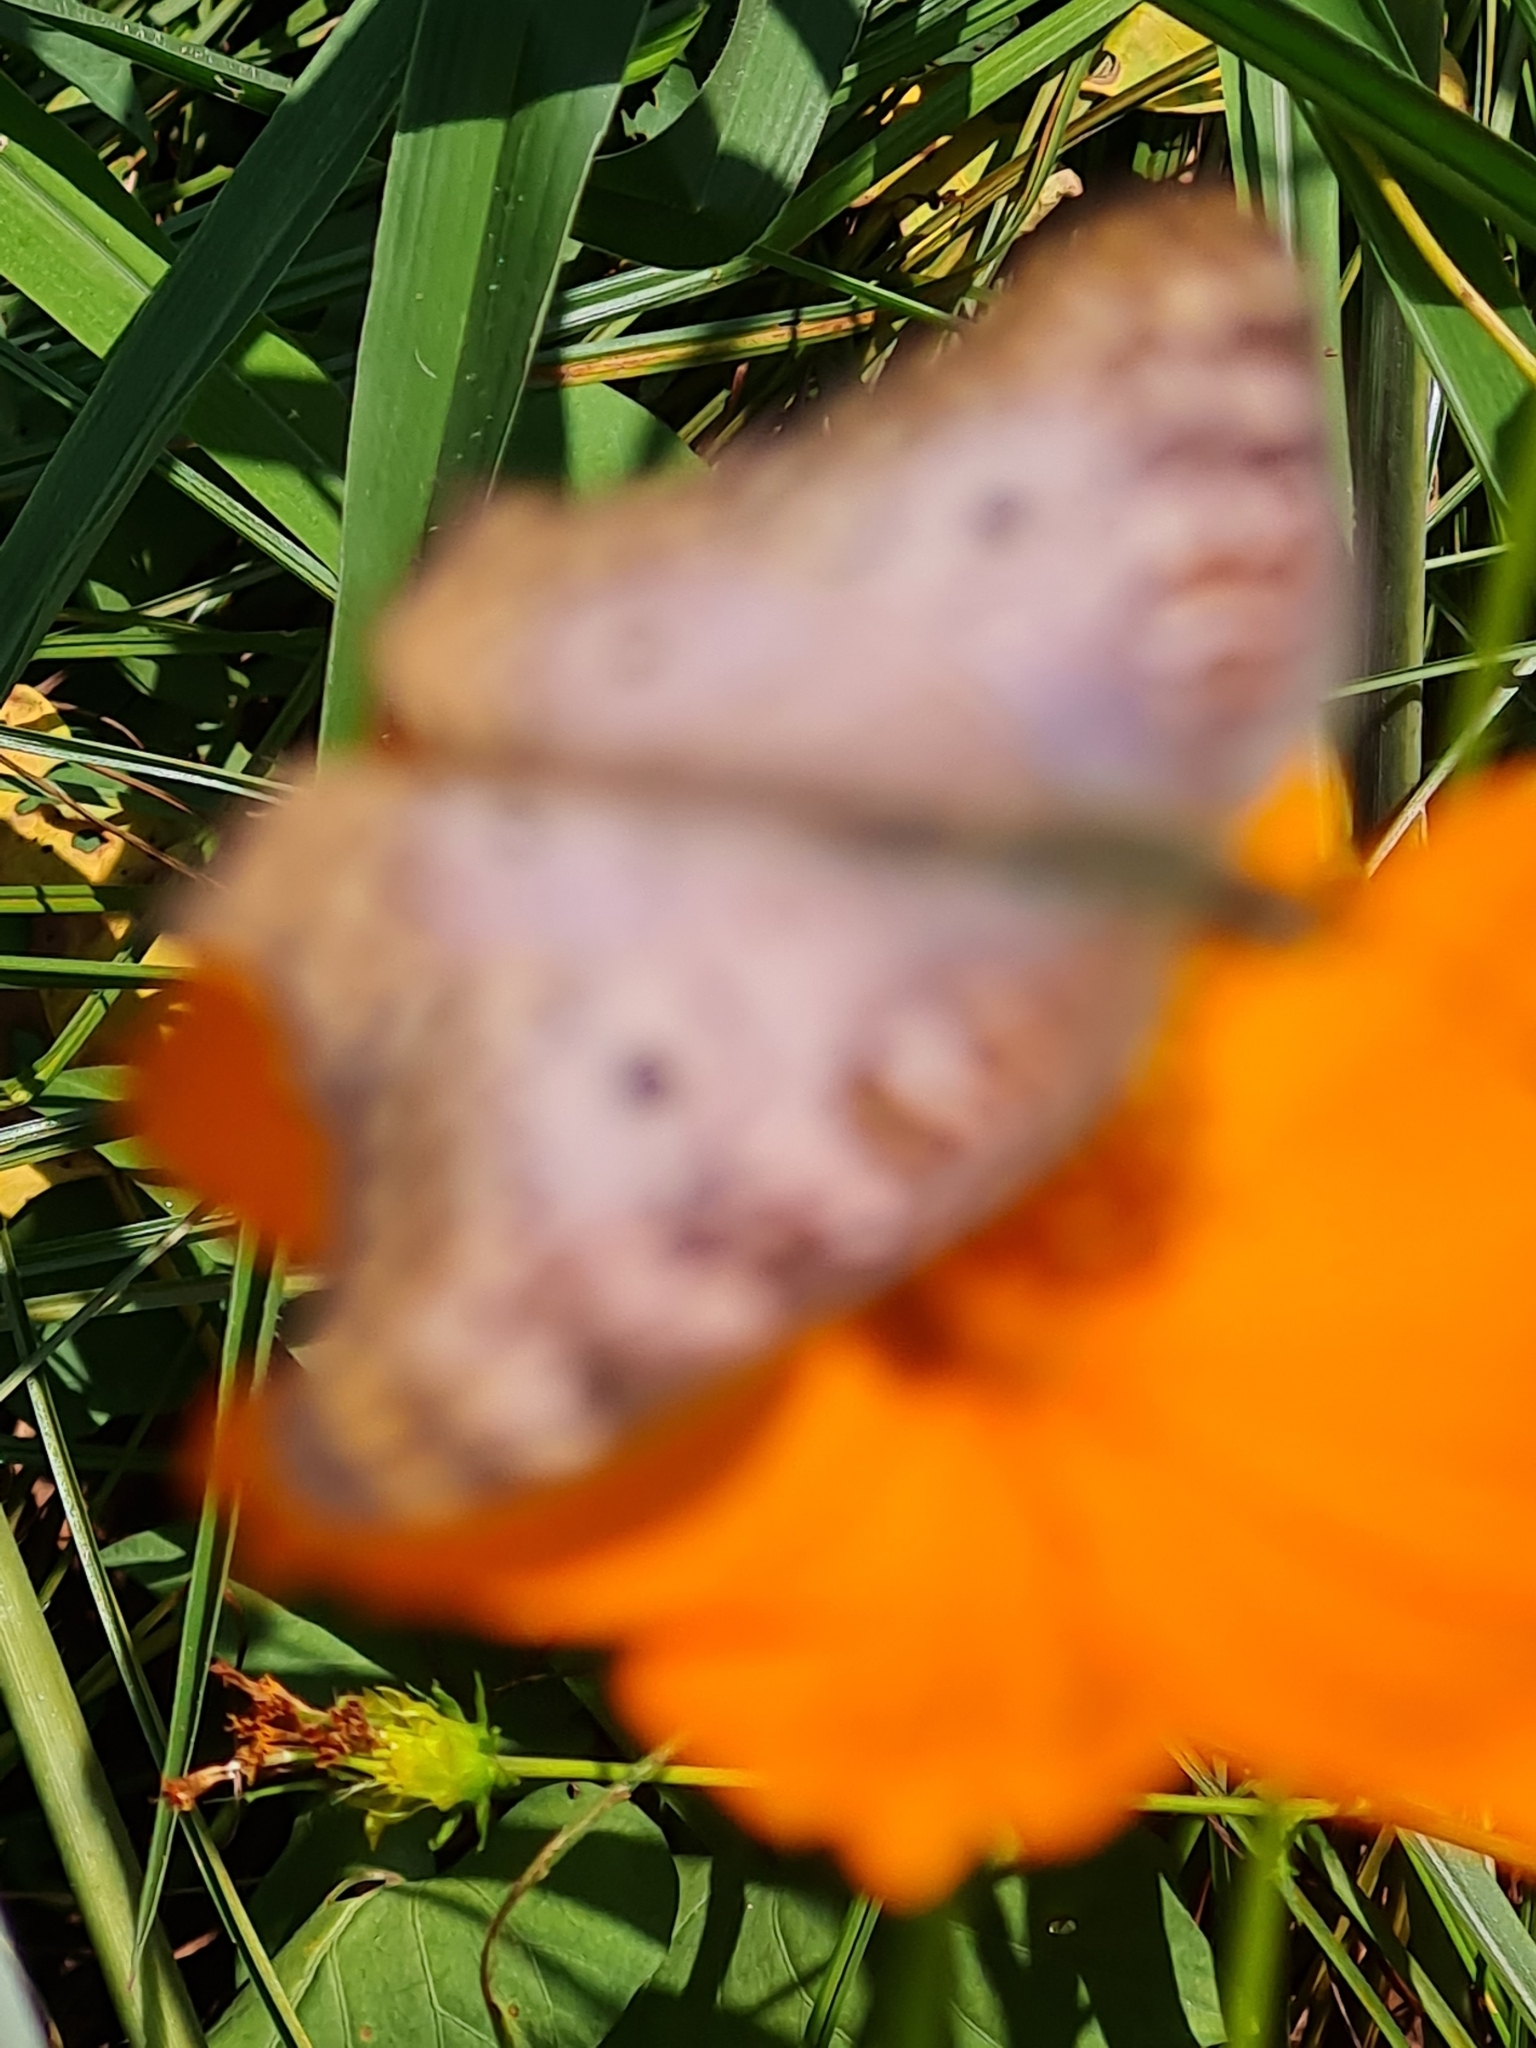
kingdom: Animalia
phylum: Arthropoda
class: Insecta
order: Lepidoptera
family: Nymphalidae
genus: Anartia
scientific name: Anartia jatrophae
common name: White peacock
